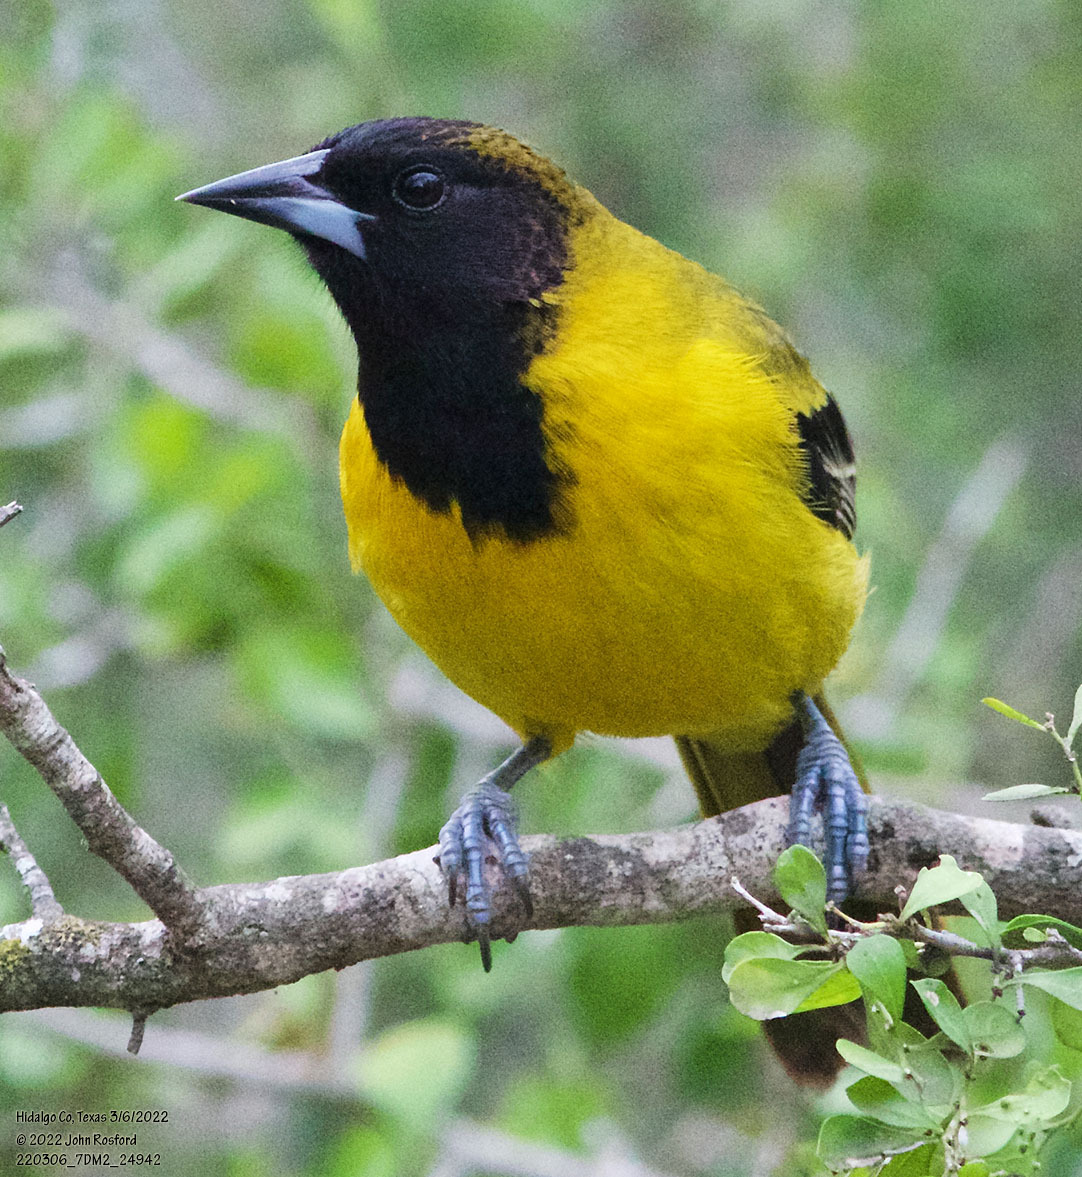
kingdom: Animalia
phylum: Chordata
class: Aves
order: Passeriformes
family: Icteridae
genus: Icterus
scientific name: Icterus graduacauda
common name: Audubon's oriole
